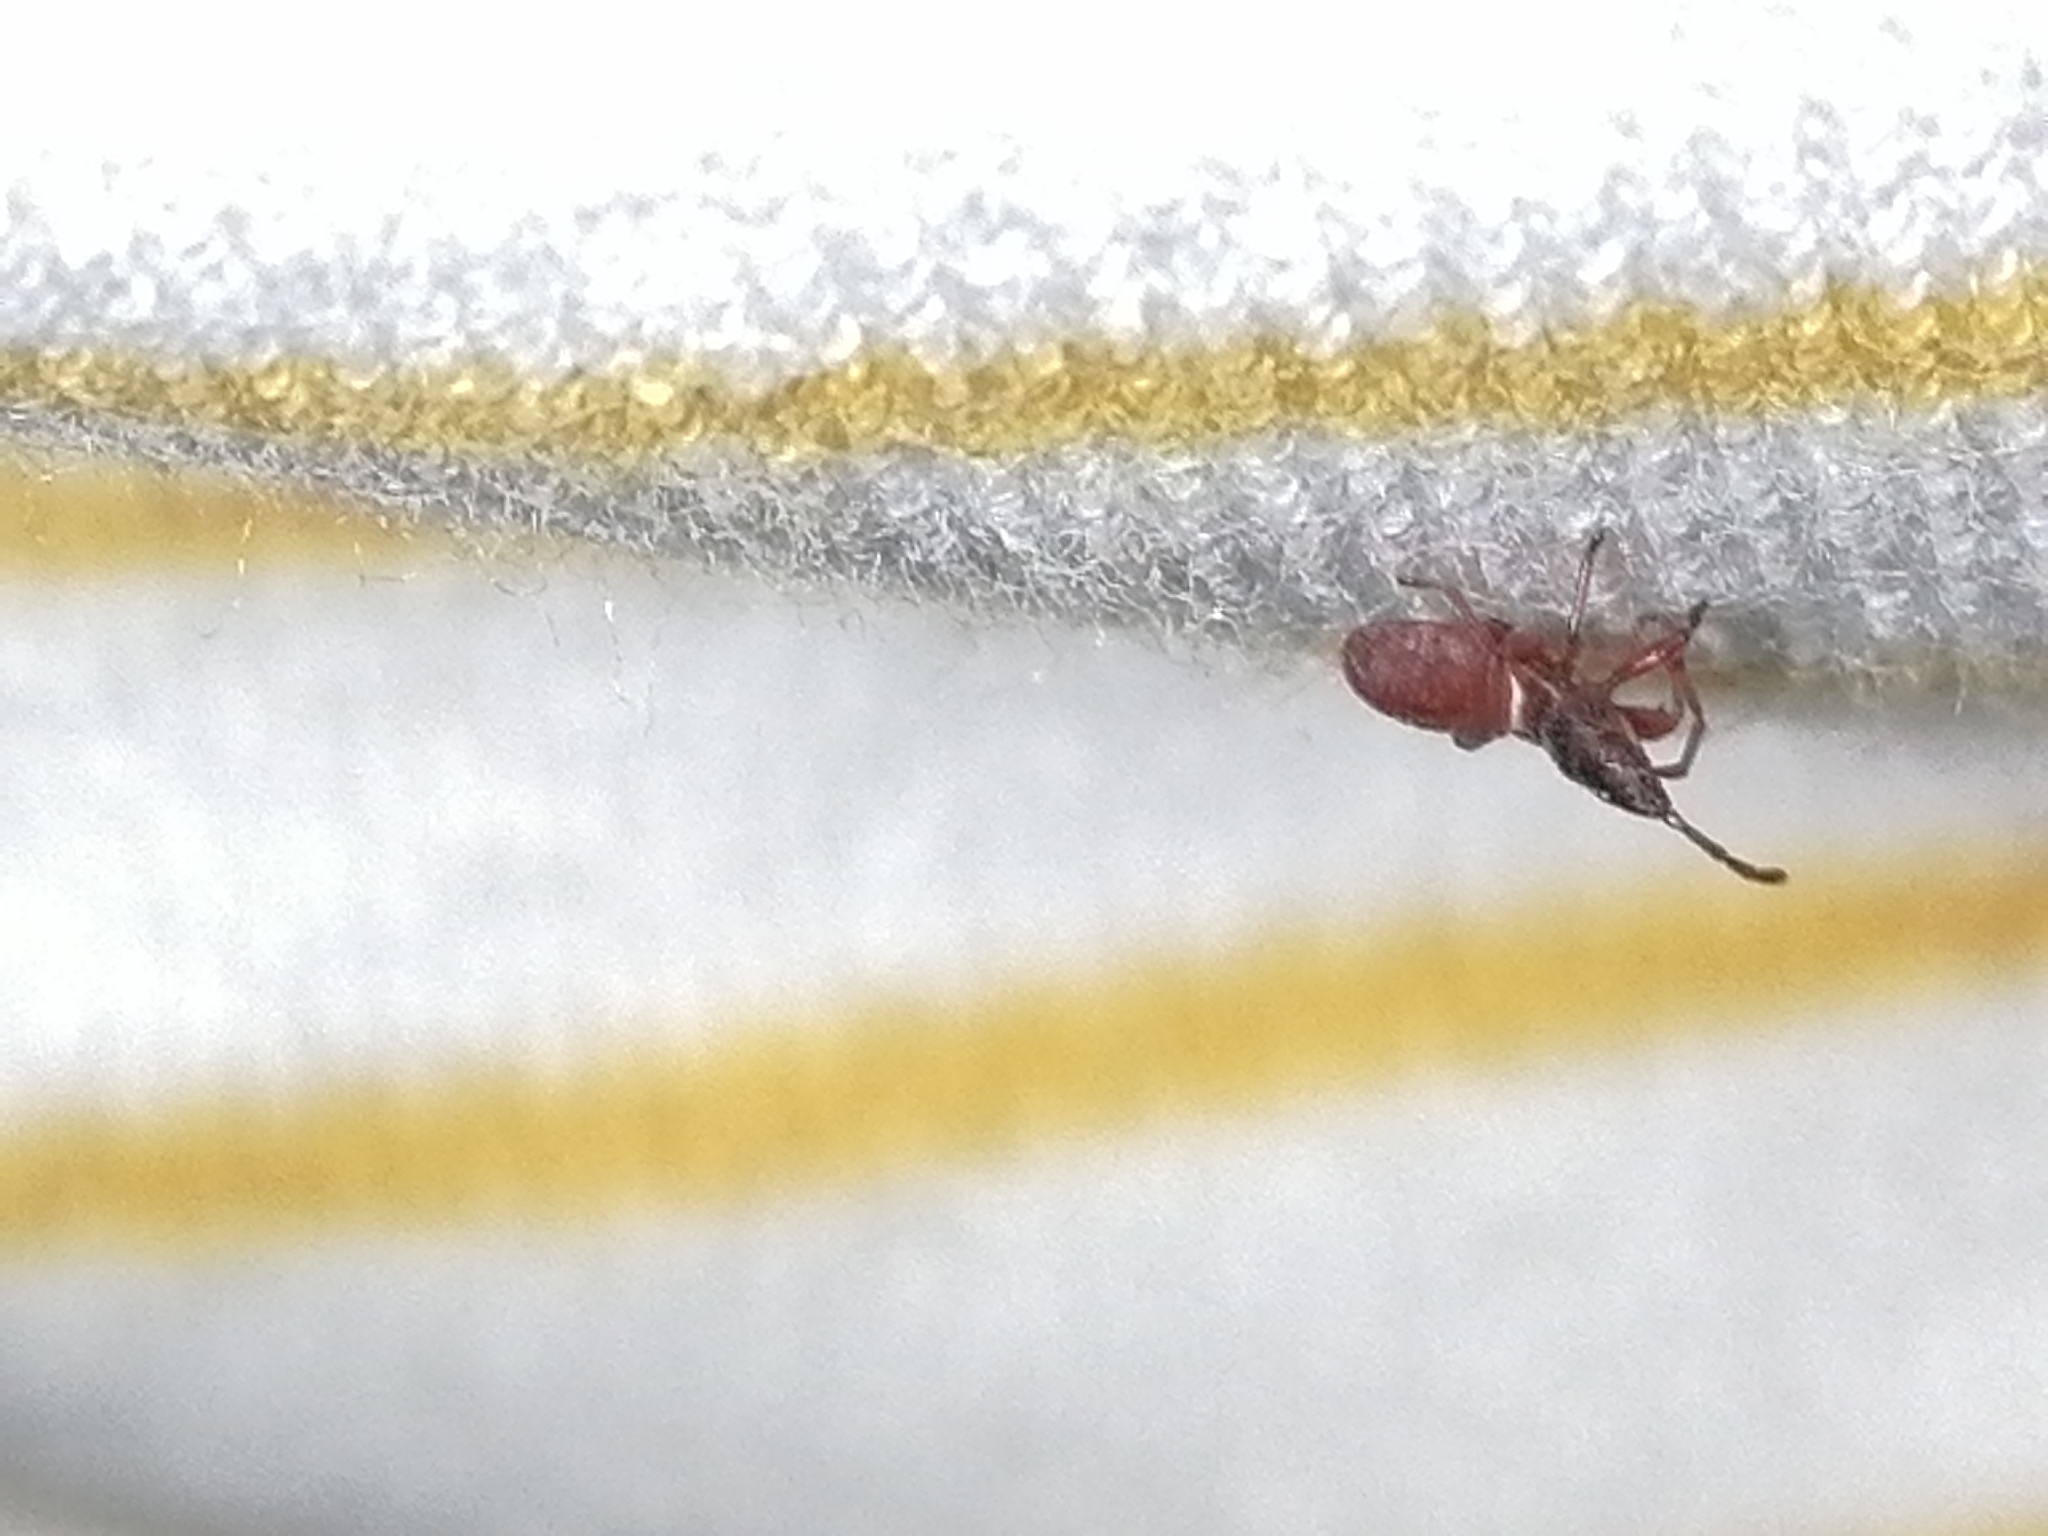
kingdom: Animalia
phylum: Arthropoda
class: Insecta
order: Hemiptera
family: Oxycarenidae
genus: Oxycarenus
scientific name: Oxycarenus lavaterae
